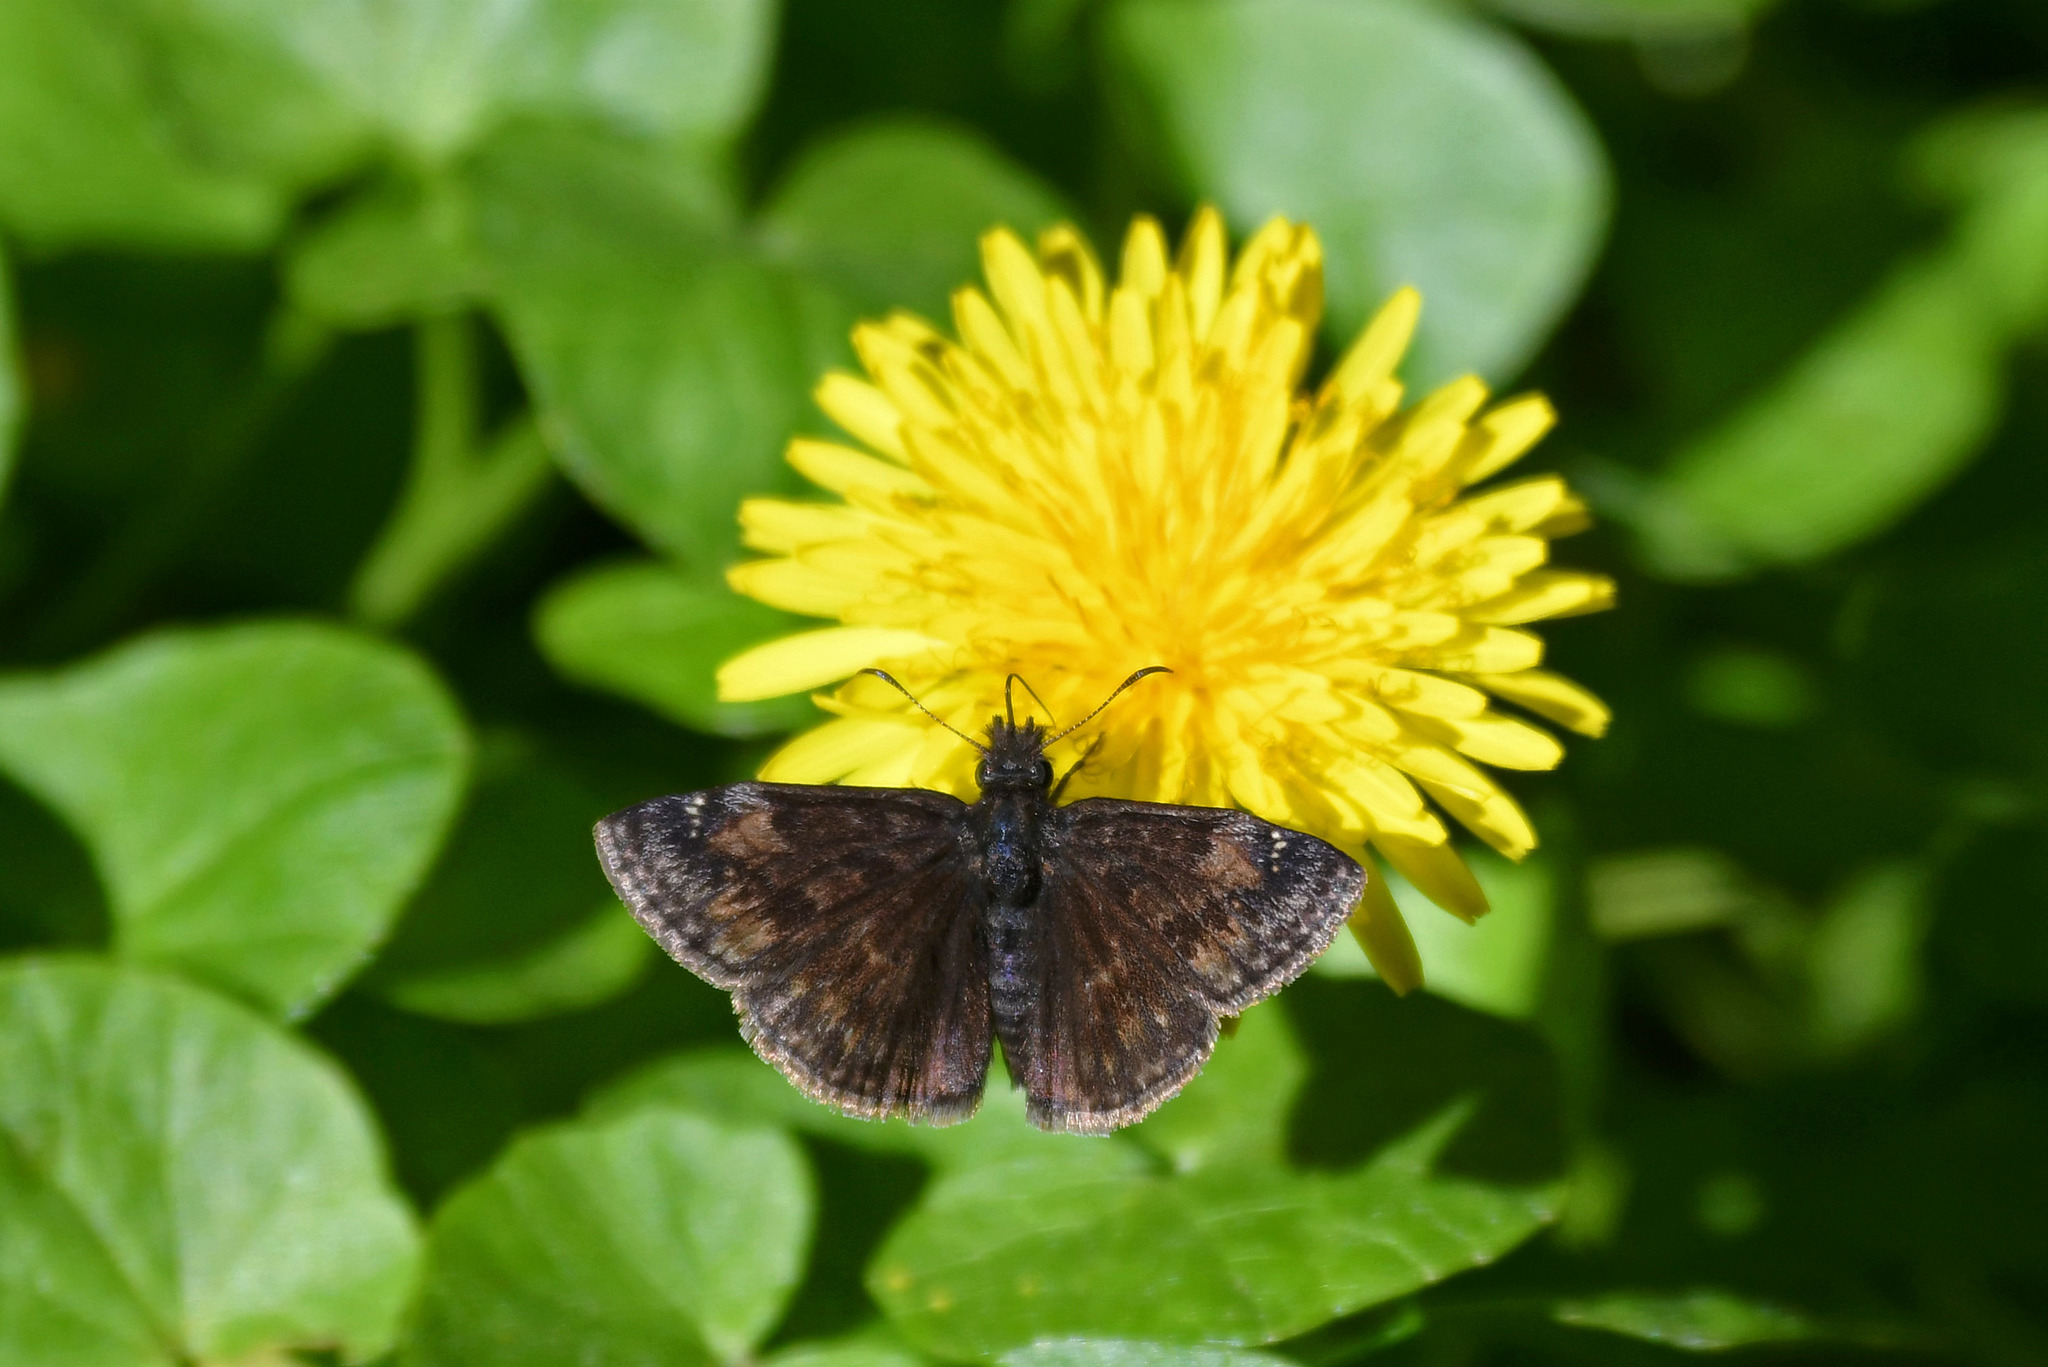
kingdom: Animalia
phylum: Arthropoda
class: Insecta
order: Lepidoptera
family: Hesperiidae
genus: Erynnis
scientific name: Erynnis baptisiae
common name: Wild indigo duskywing
